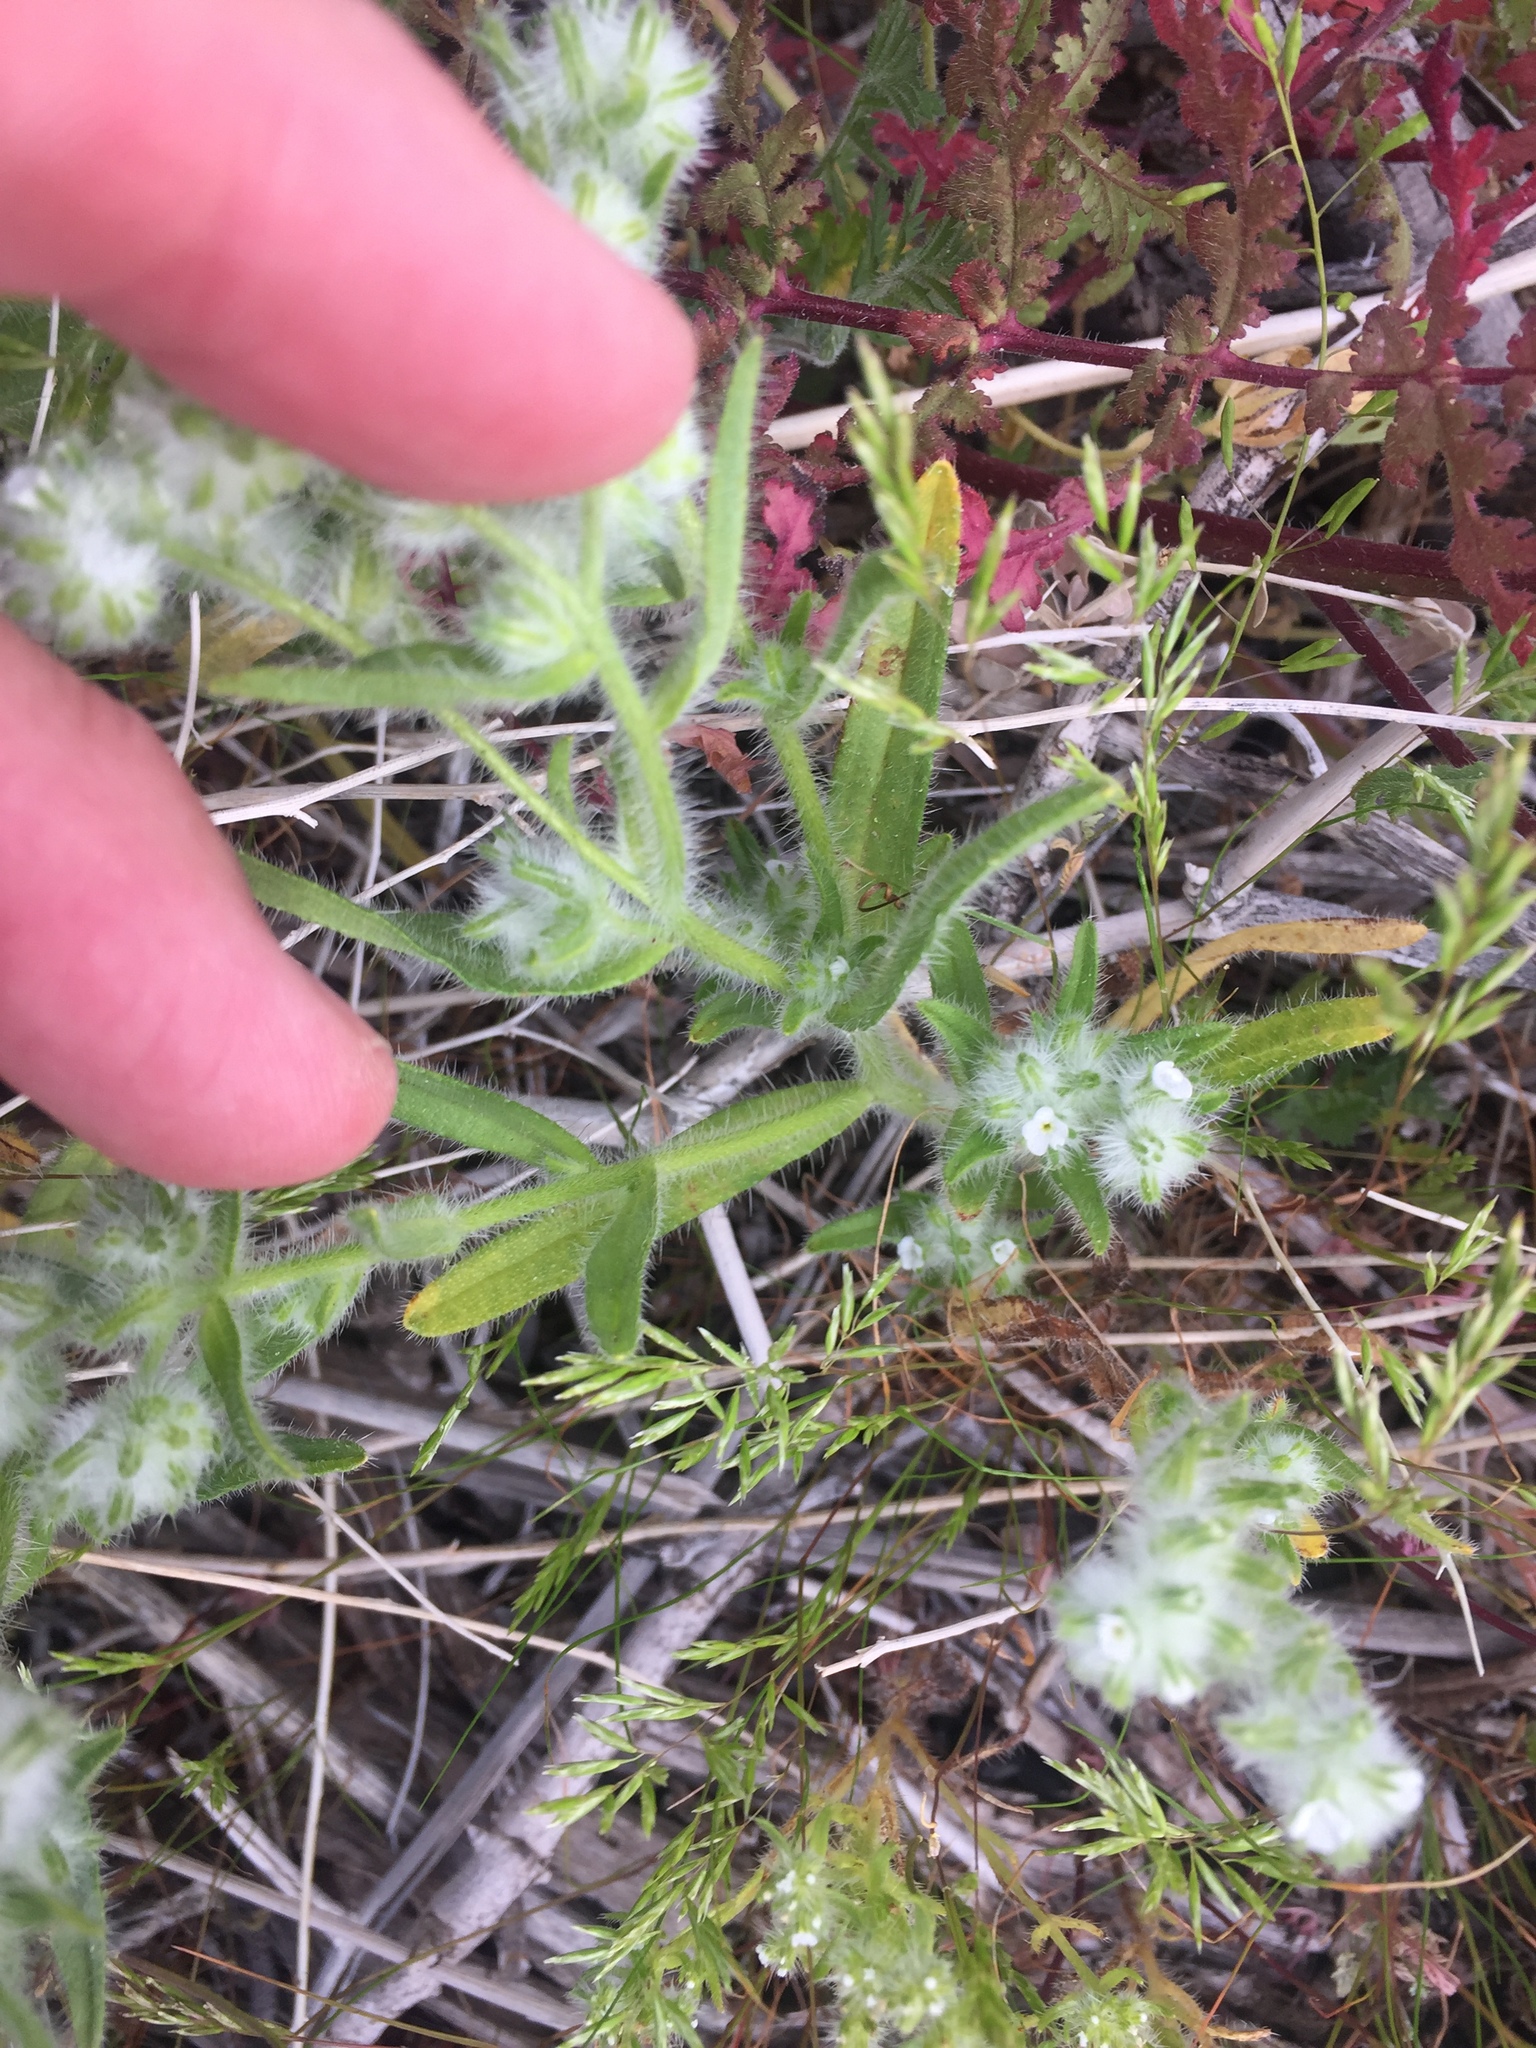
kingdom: Plantae
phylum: Tracheophyta
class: Magnoliopsida
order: Boraginales
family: Boraginaceae
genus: Cryptantha
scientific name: Cryptantha barbigera
